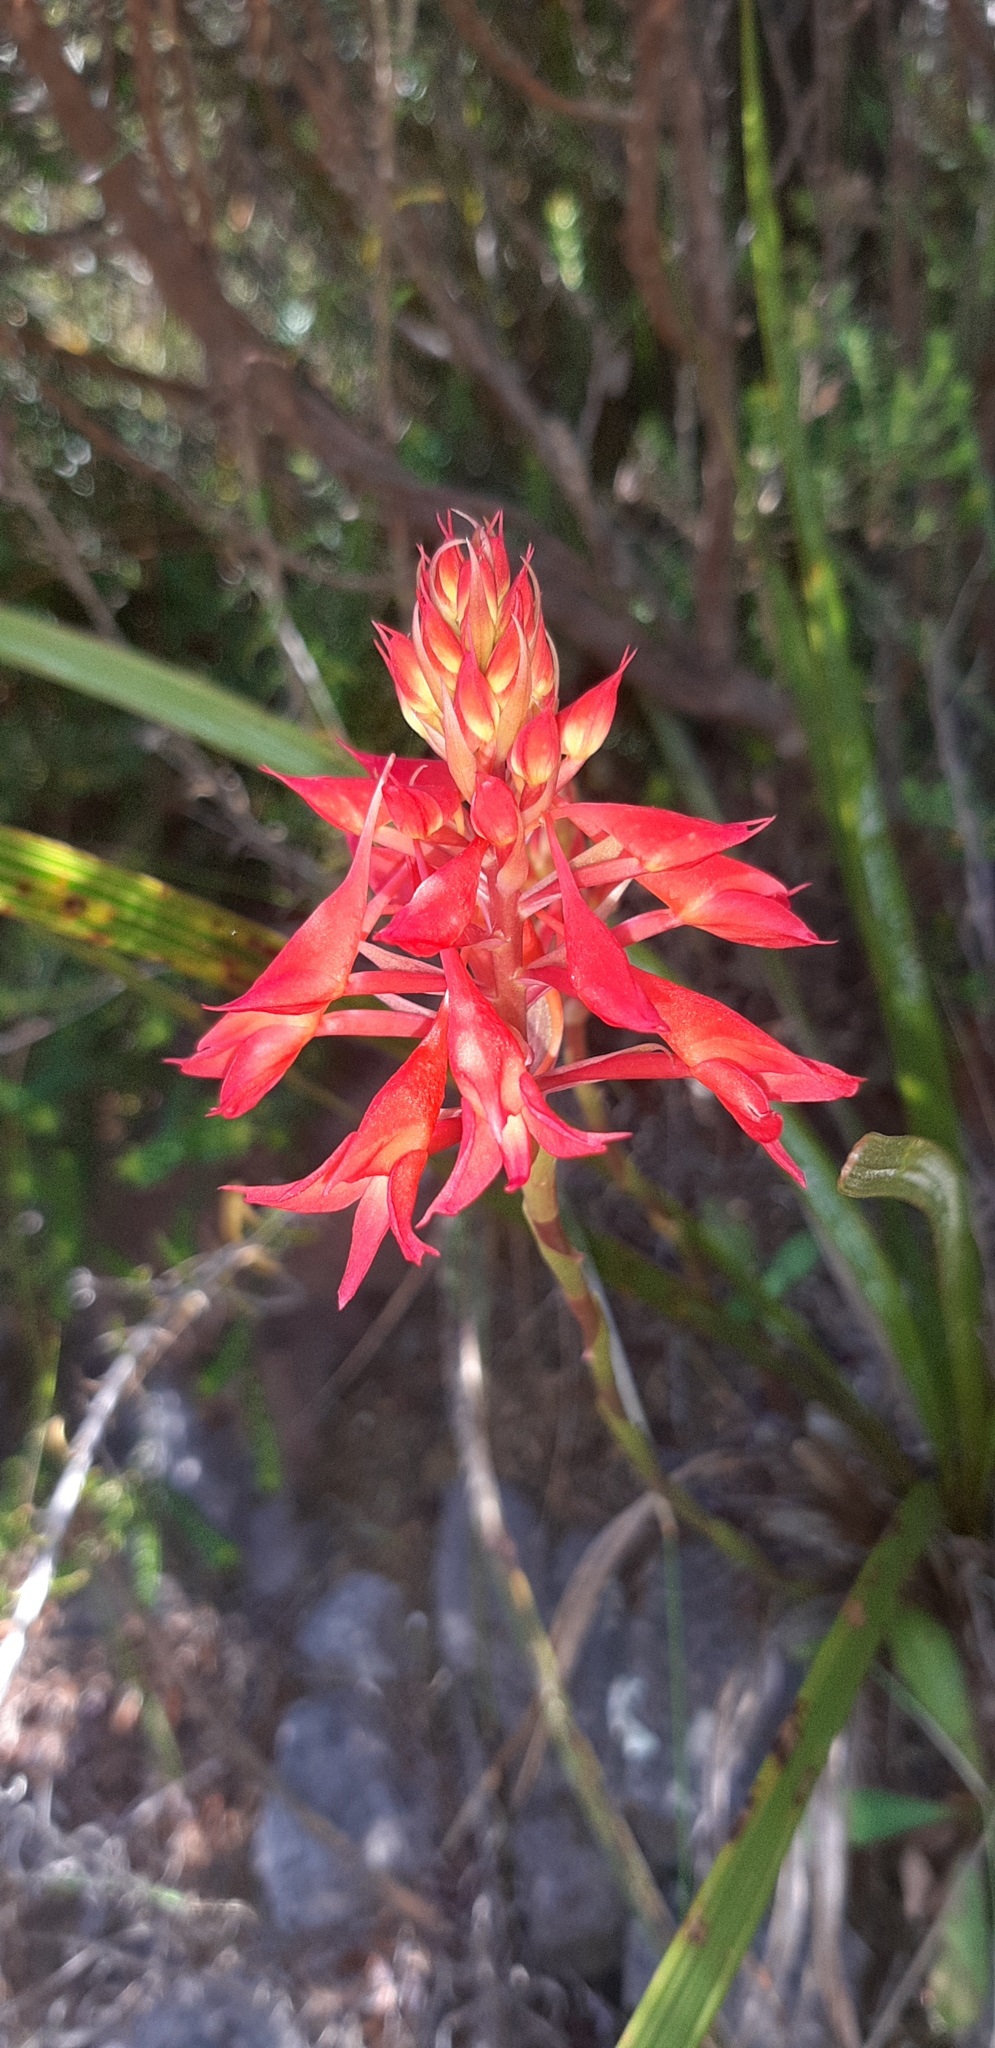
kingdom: Plantae
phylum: Tracheophyta
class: Liliopsida
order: Asparagales
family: Orchidaceae
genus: Disa
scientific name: Disa ferruginea
